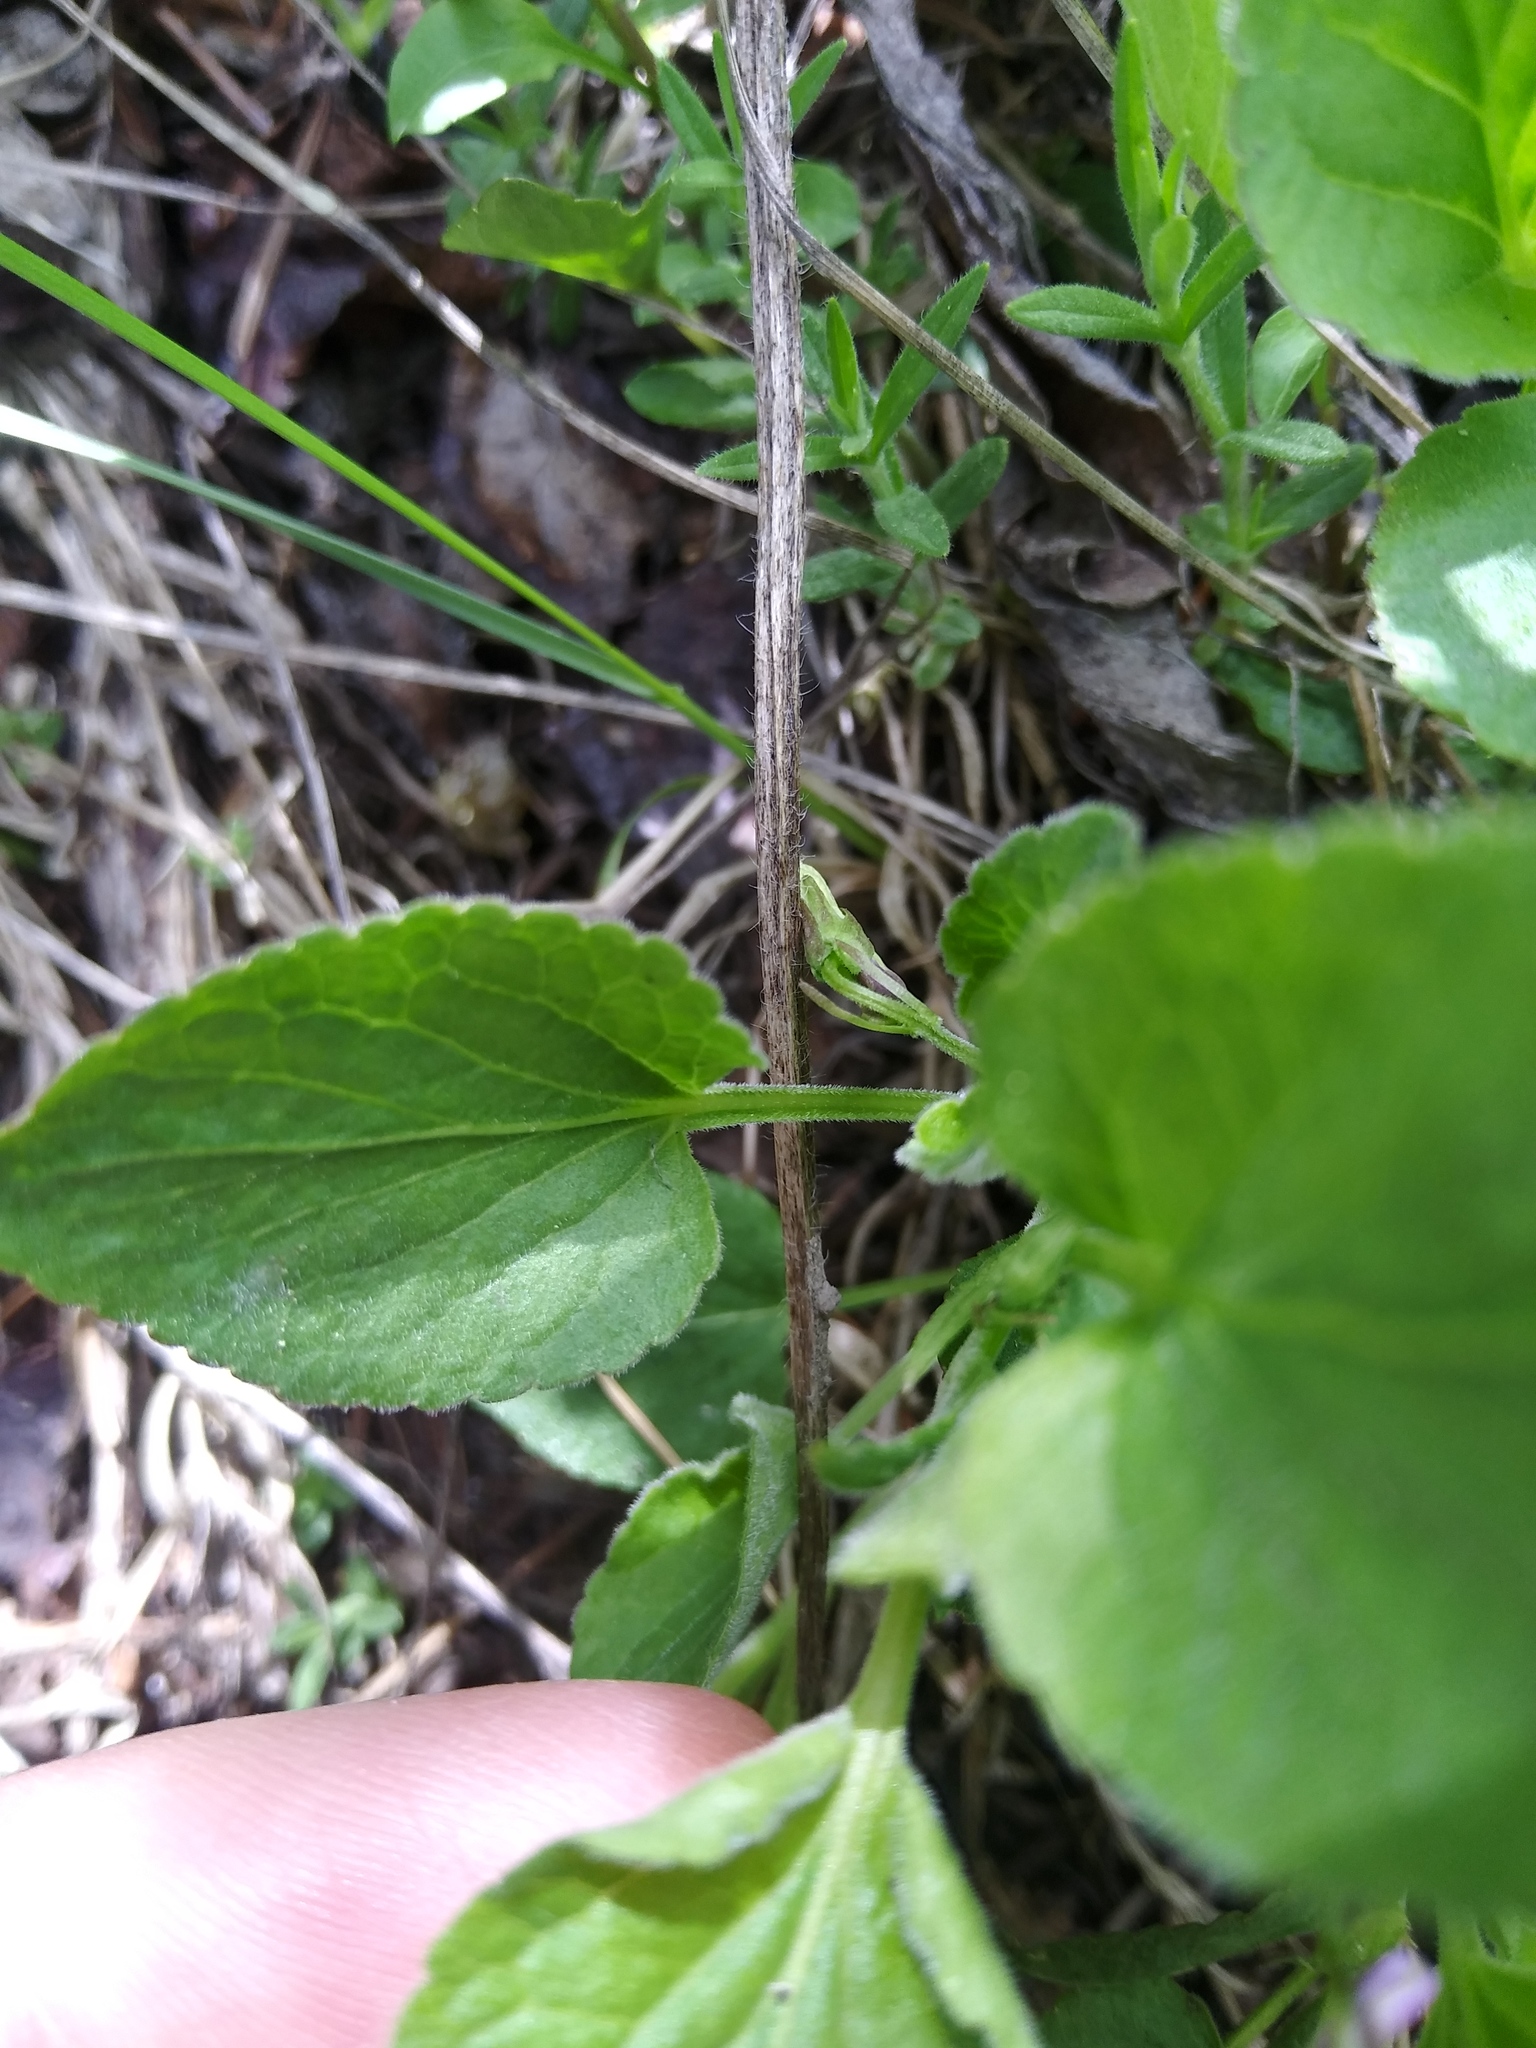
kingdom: Plantae
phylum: Tracheophyta
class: Magnoliopsida
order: Malpighiales
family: Violaceae
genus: Viola
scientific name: Viola adunca
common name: Sand violet
